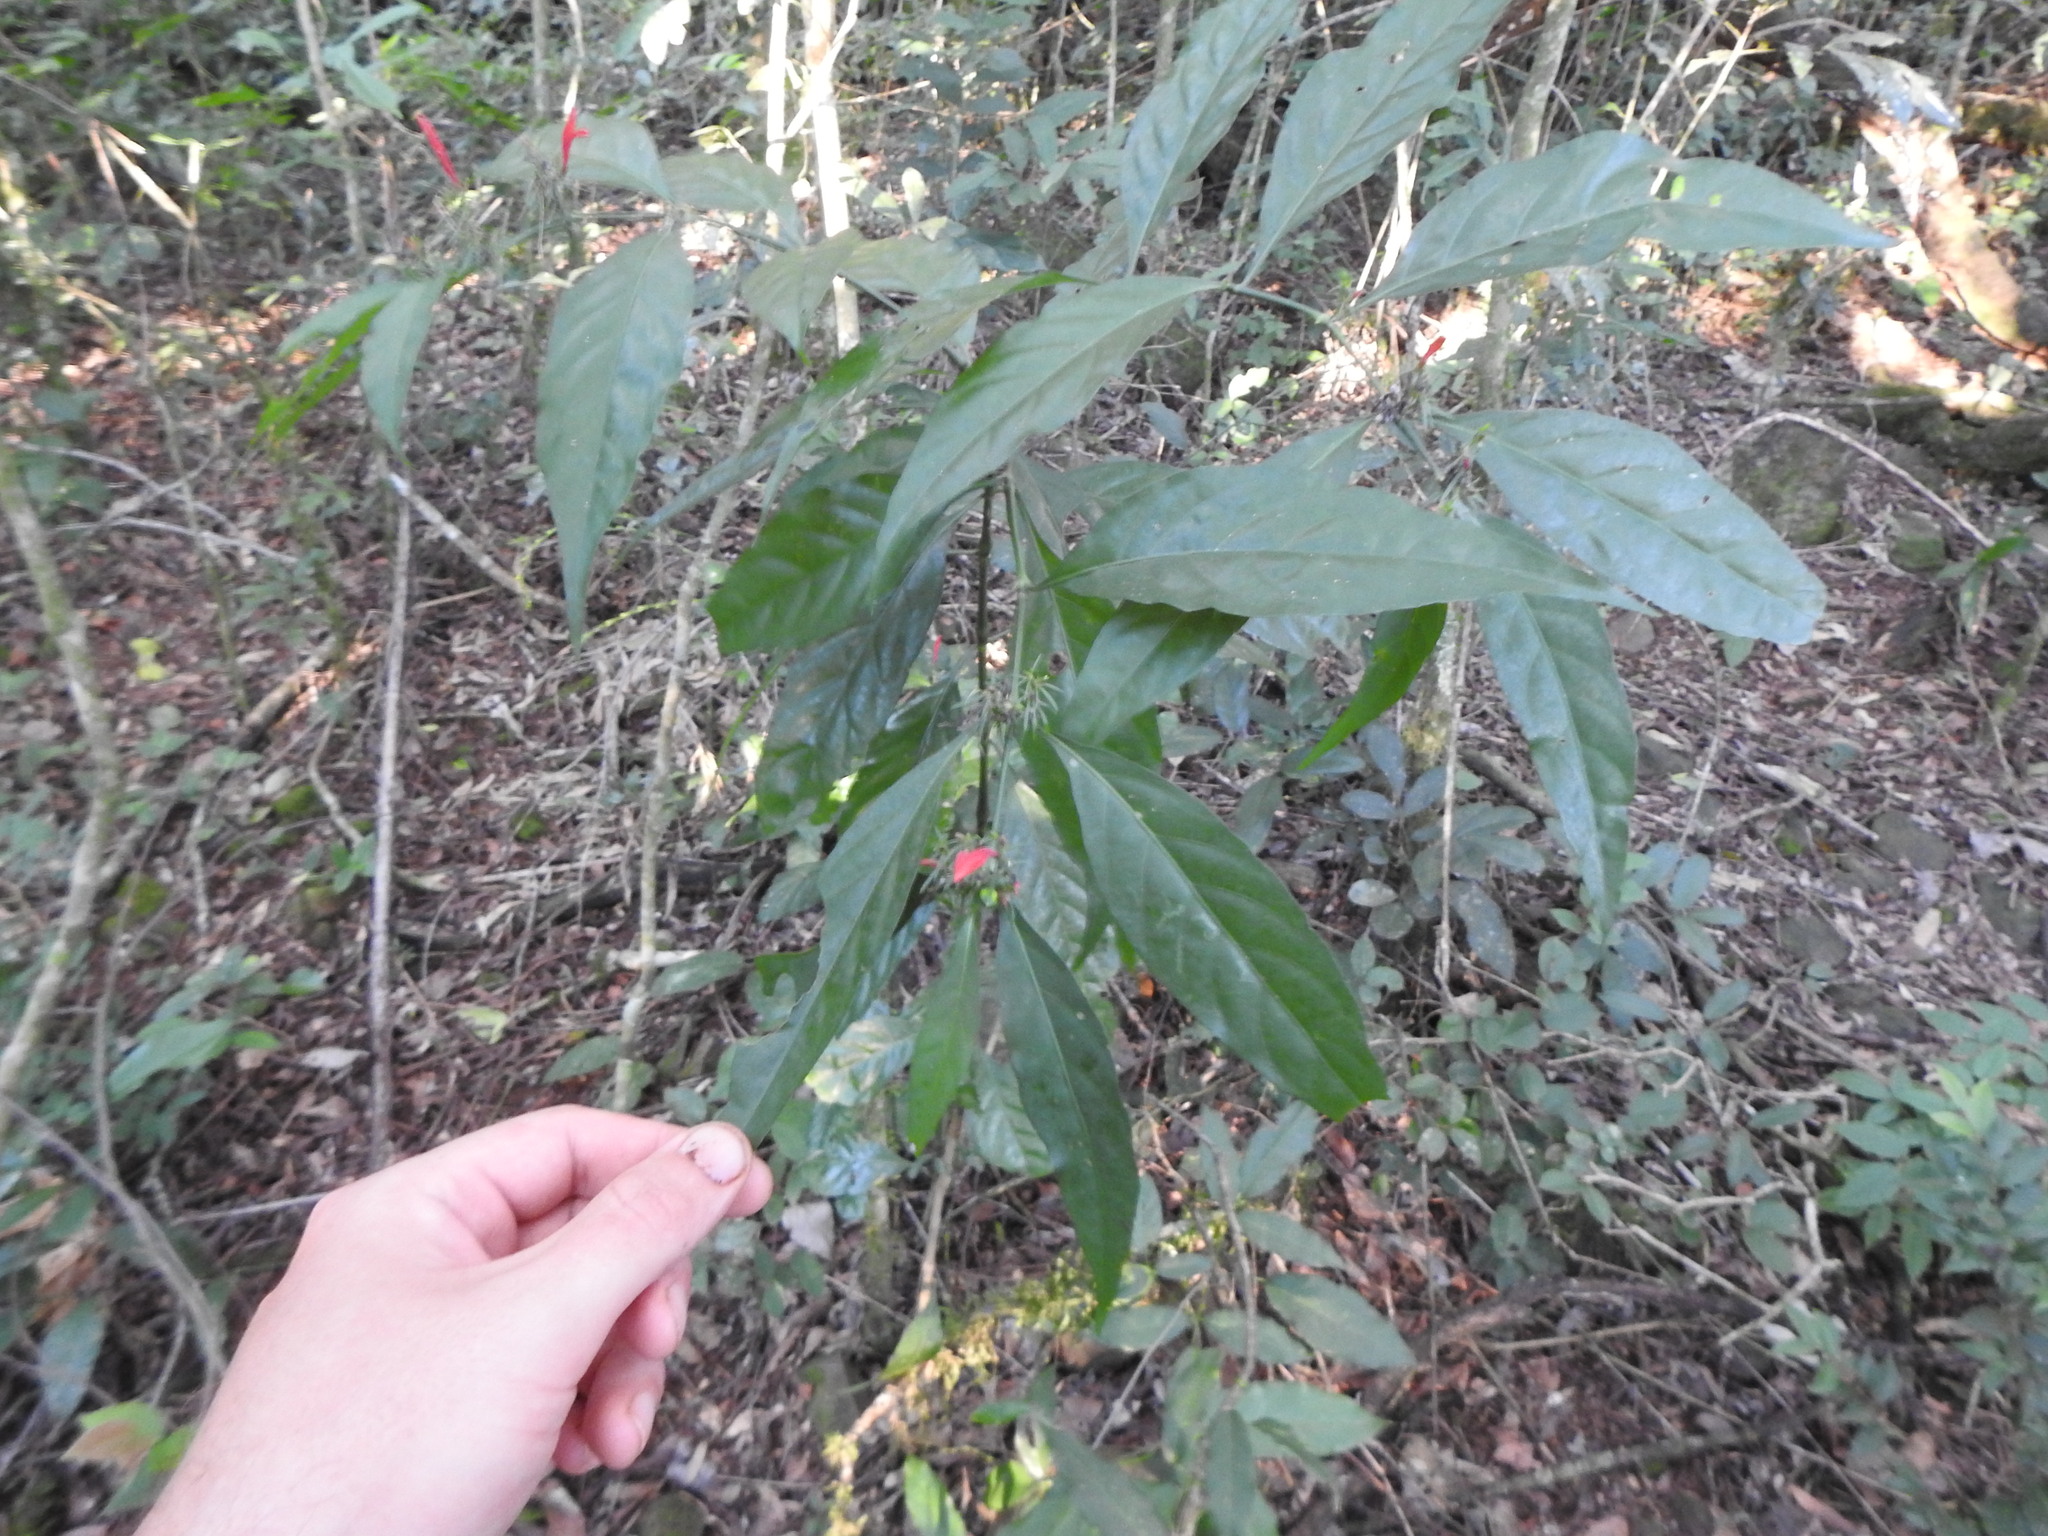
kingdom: Plantae
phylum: Tracheophyta
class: Magnoliopsida
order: Lamiales
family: Acanthaceae
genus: Justicia
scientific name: Justicia brasiliana
